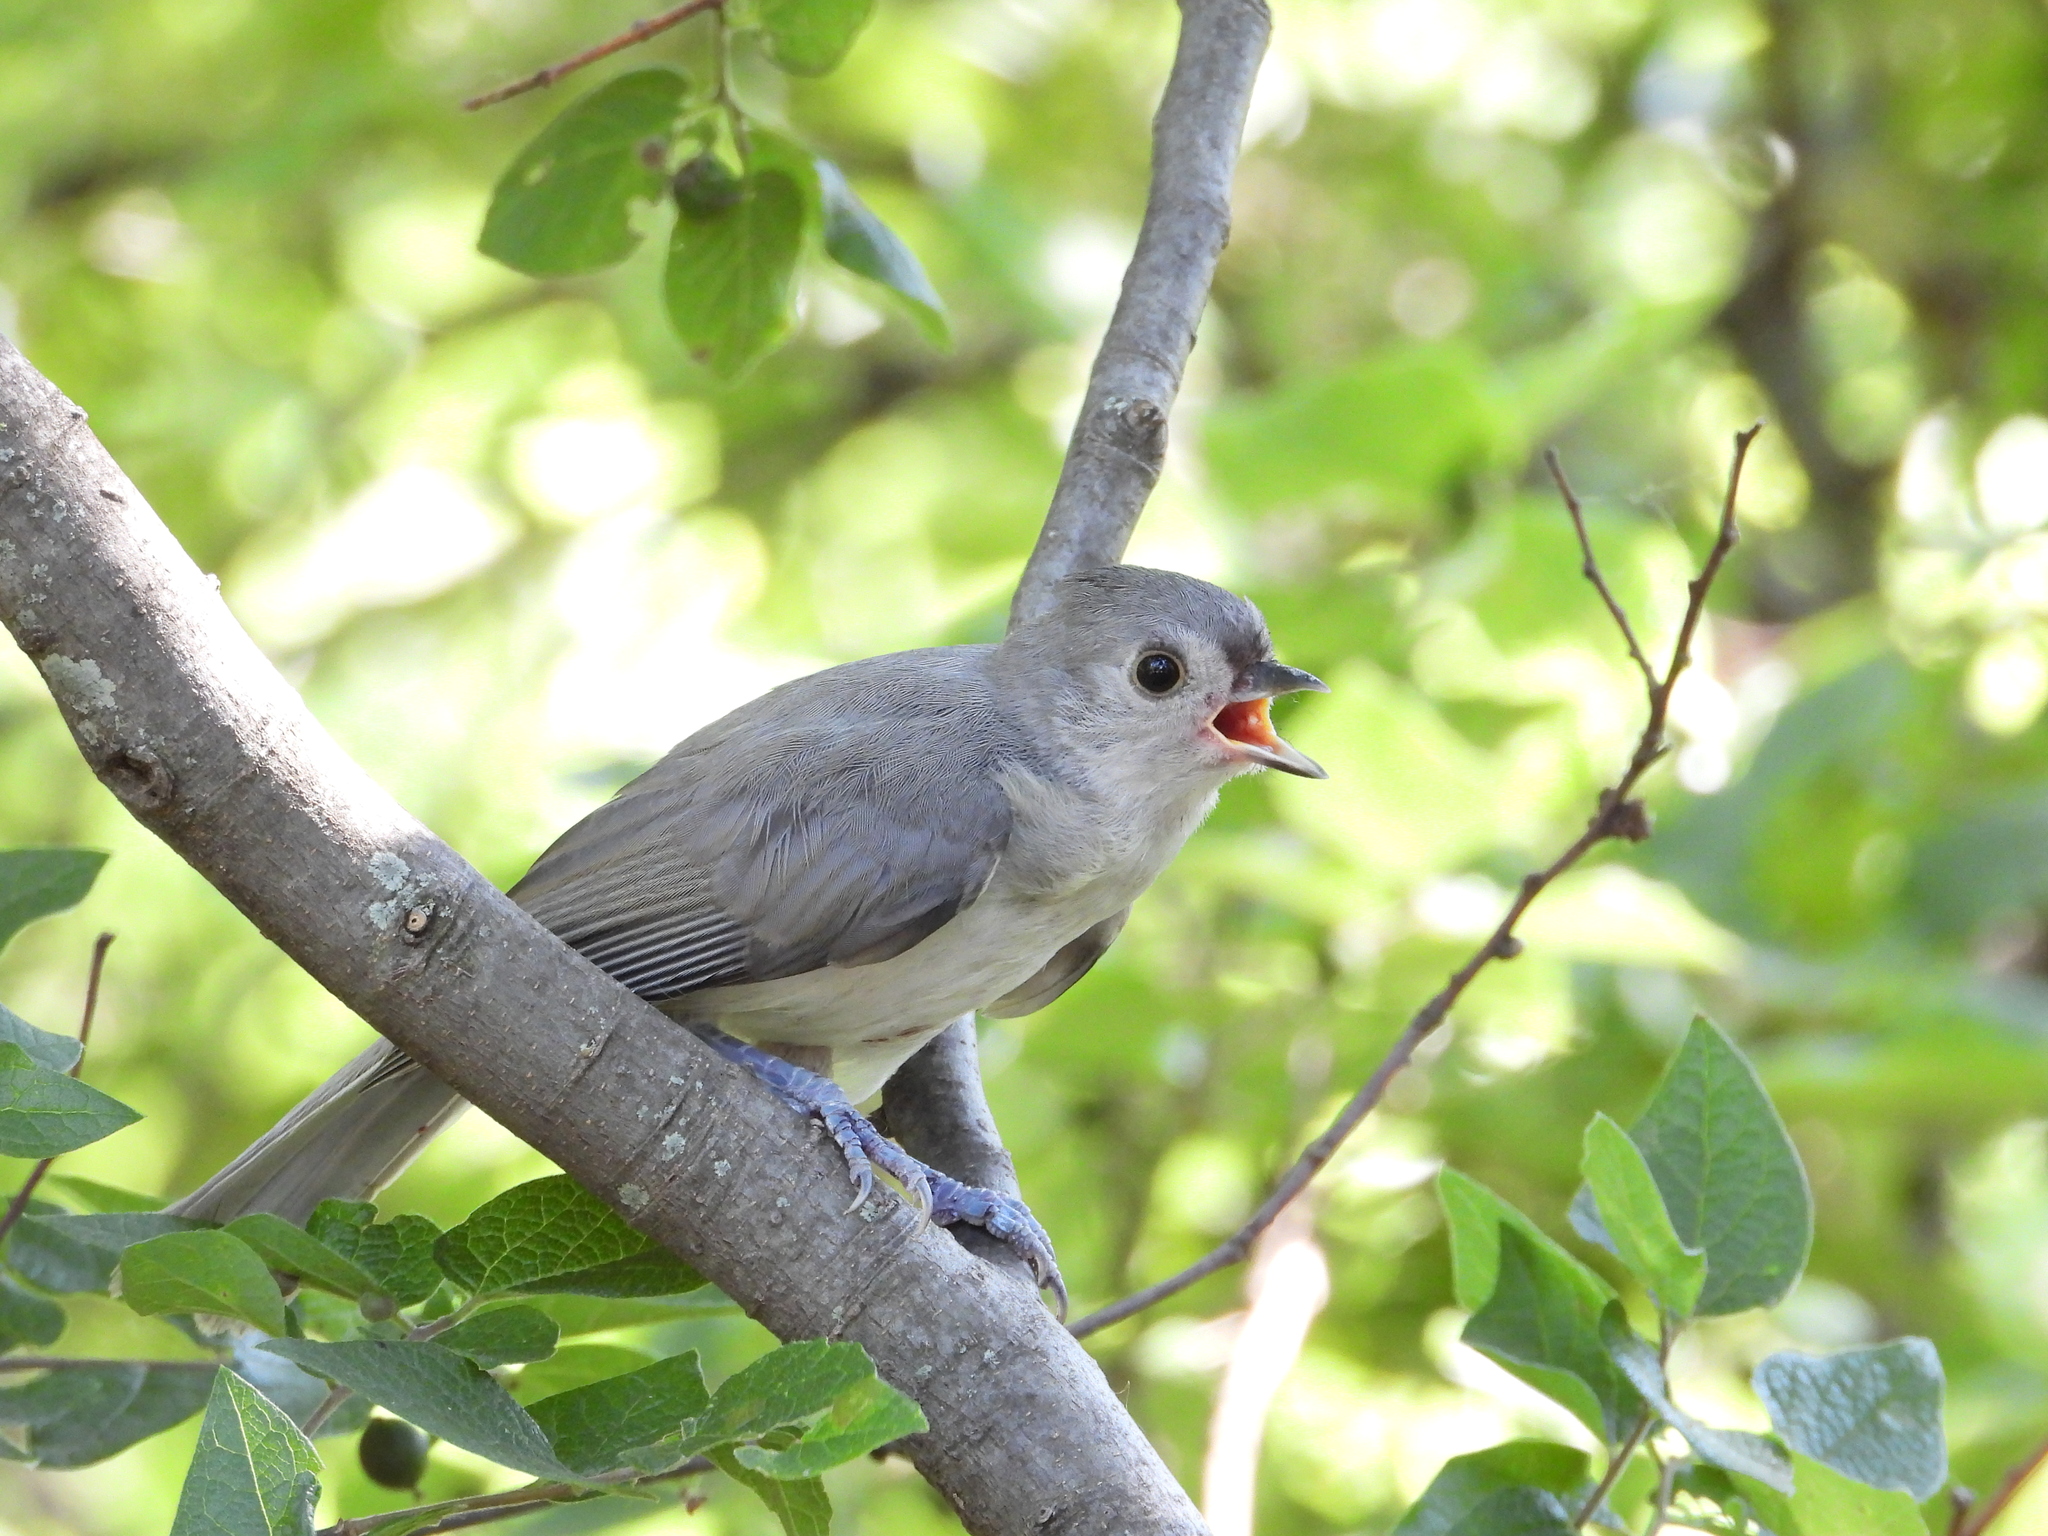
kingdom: Animalia
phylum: Chordata
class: Aves
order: Passeriformes
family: Paridae
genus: Baeolophus
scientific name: Baeolophus bicolor
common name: Tufted titmouse
